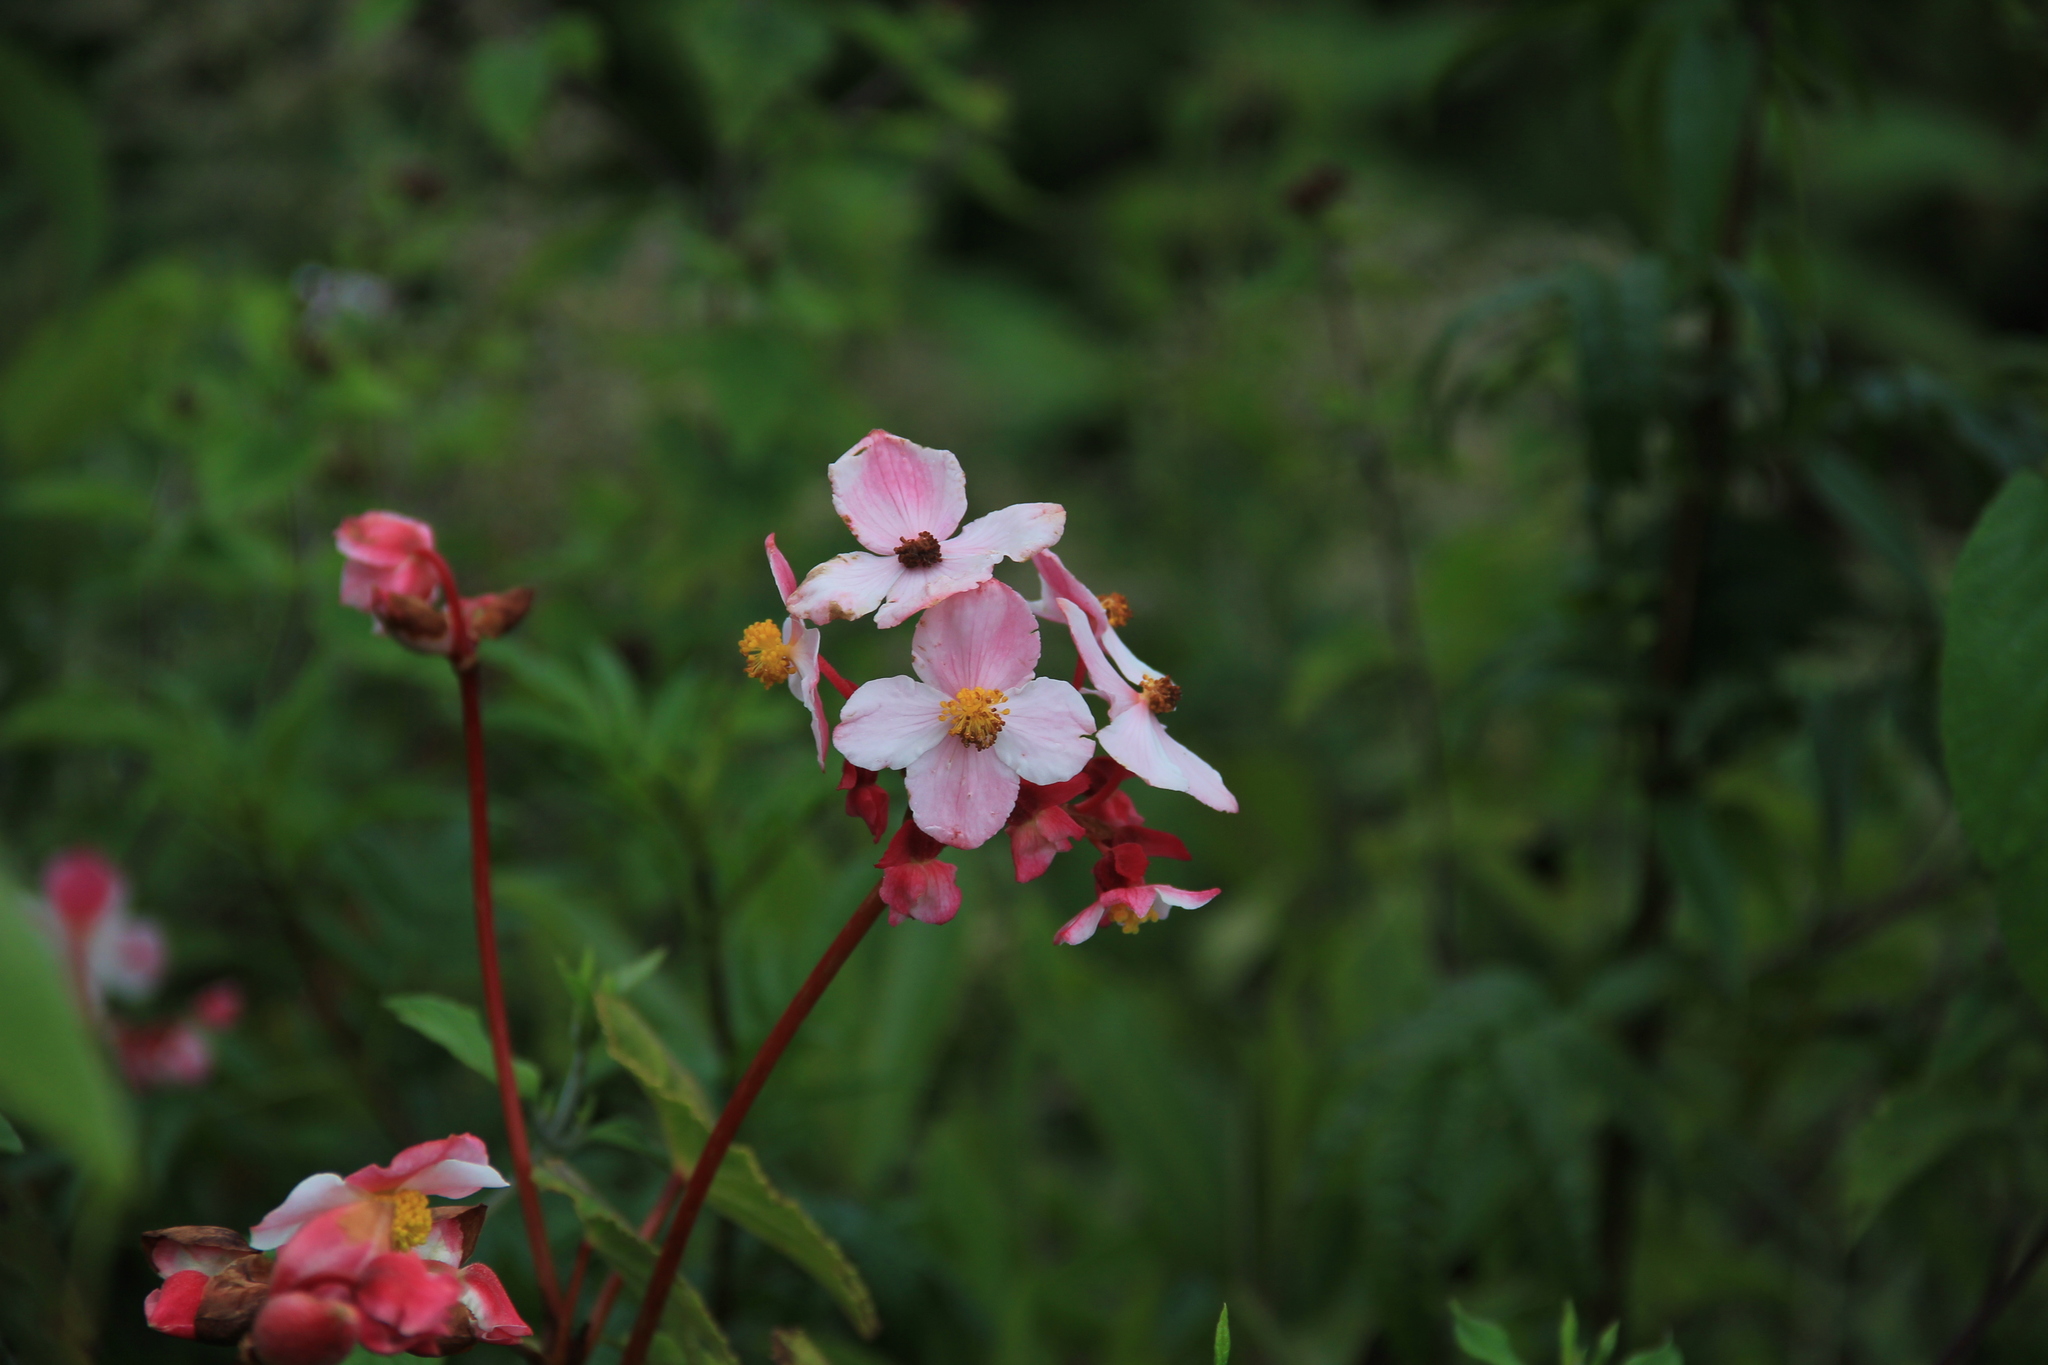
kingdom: Plantae
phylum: Tracheophyta
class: Magnoliopsida
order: Cucurbitales
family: Begoniaceae
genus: Begonia
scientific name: Begonia acerifolia
